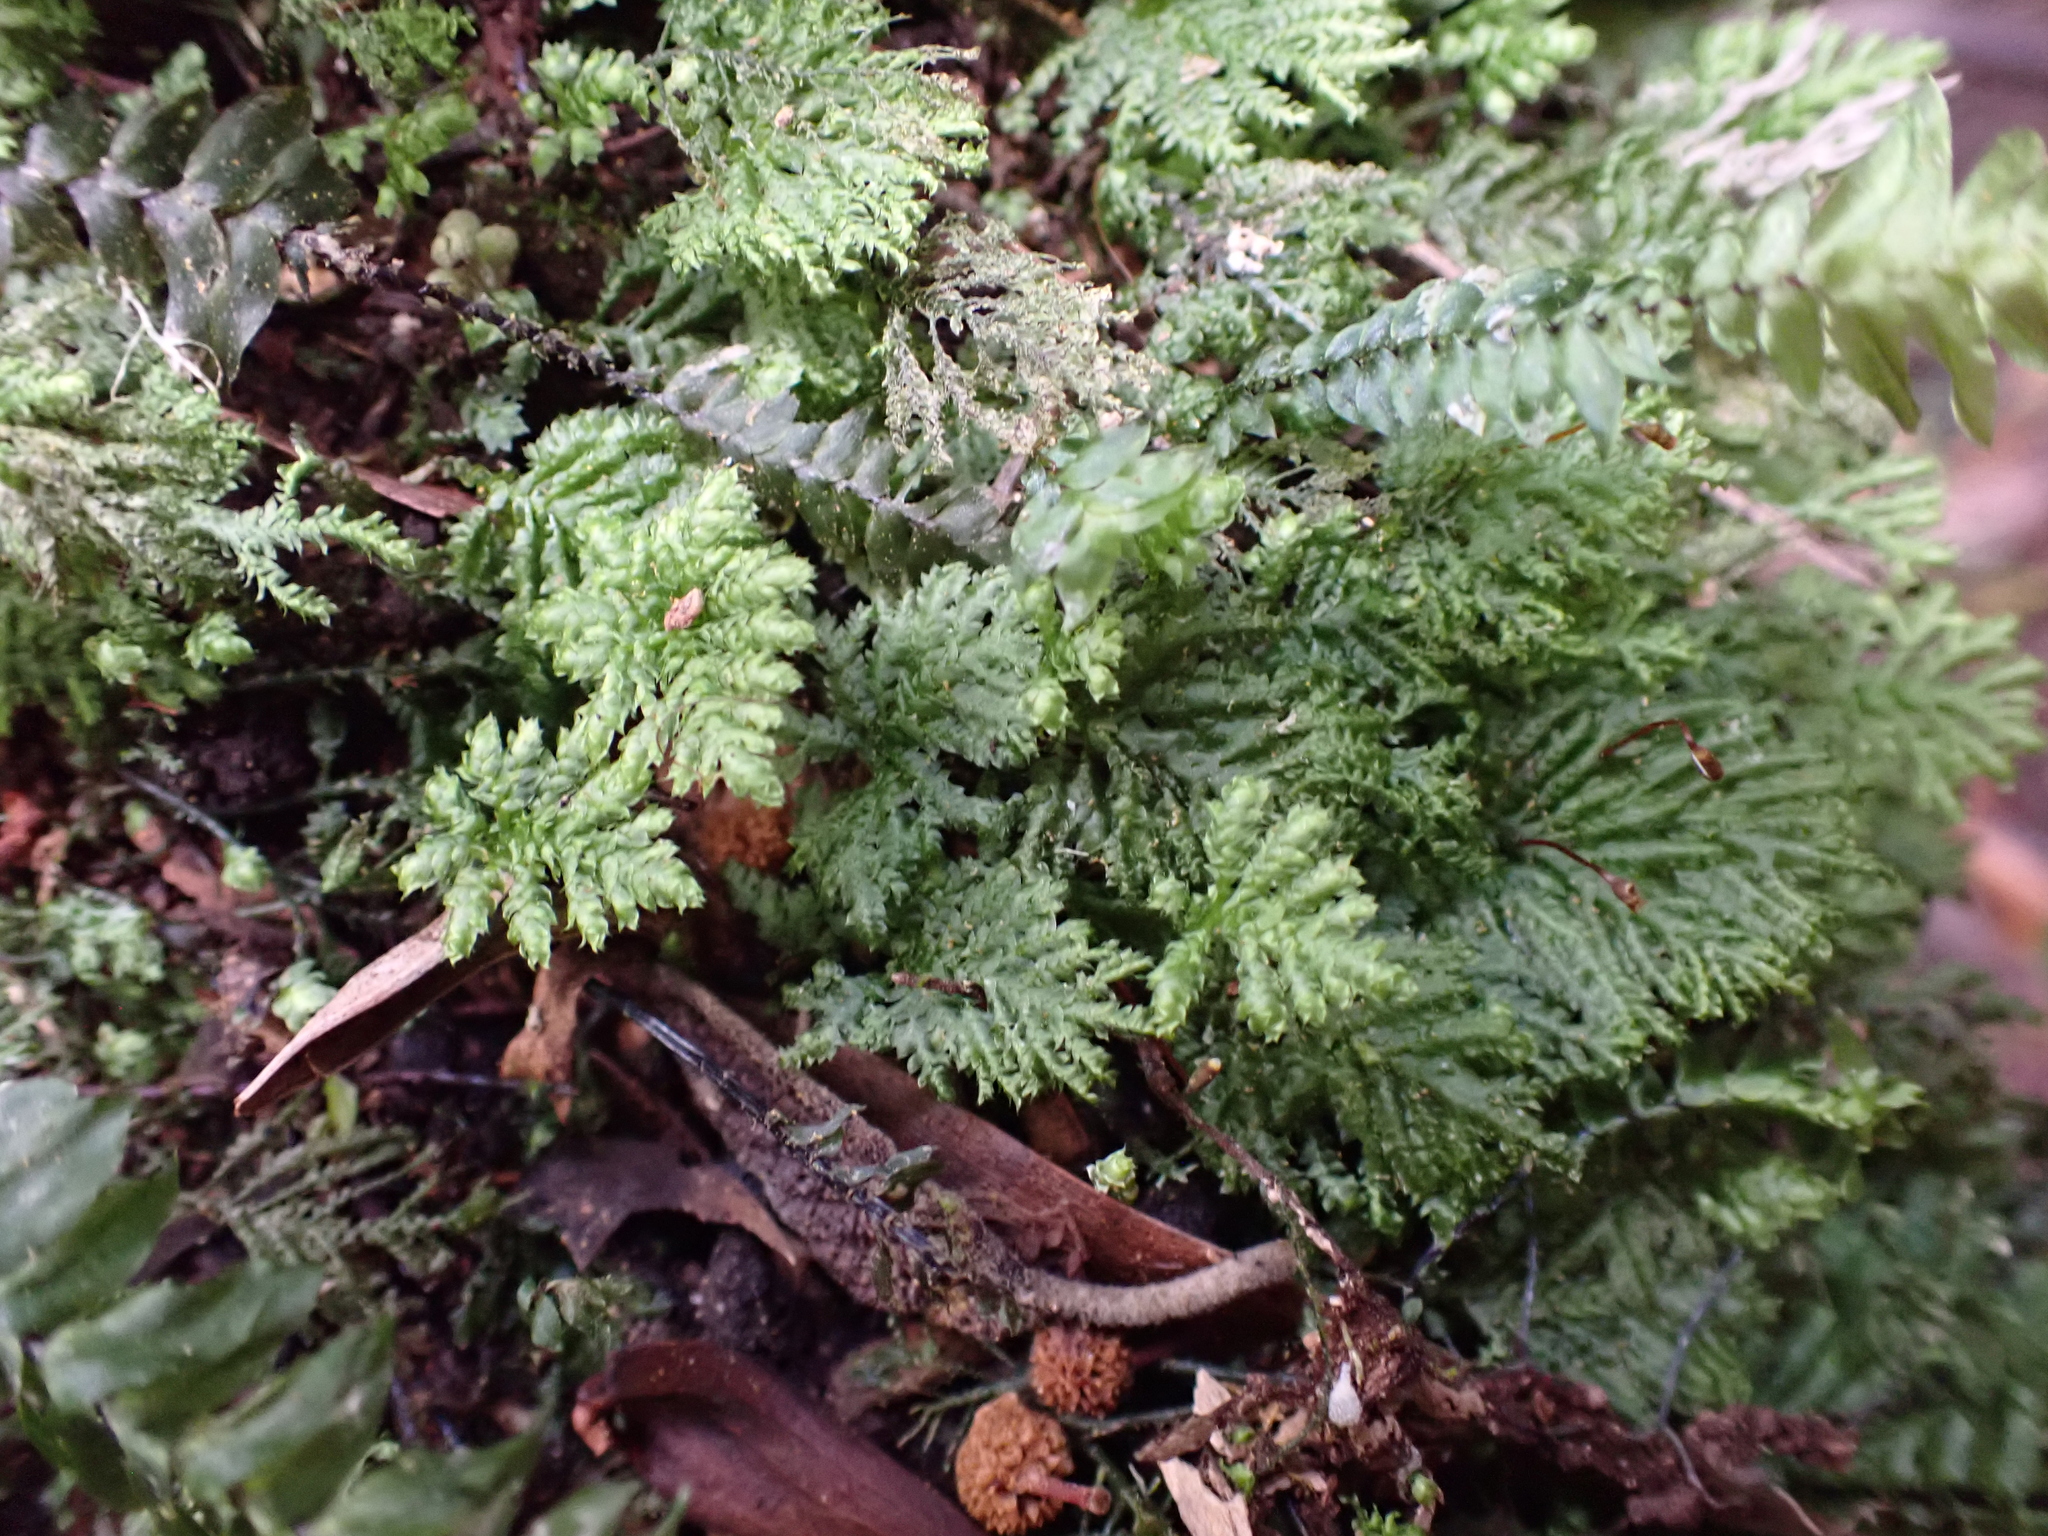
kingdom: Plantae
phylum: Bryophyta
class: Bryopsida
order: Hypopterygiales
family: Hypopterygiaceae
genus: Hypopterygium
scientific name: Hypopterygium didictyon
